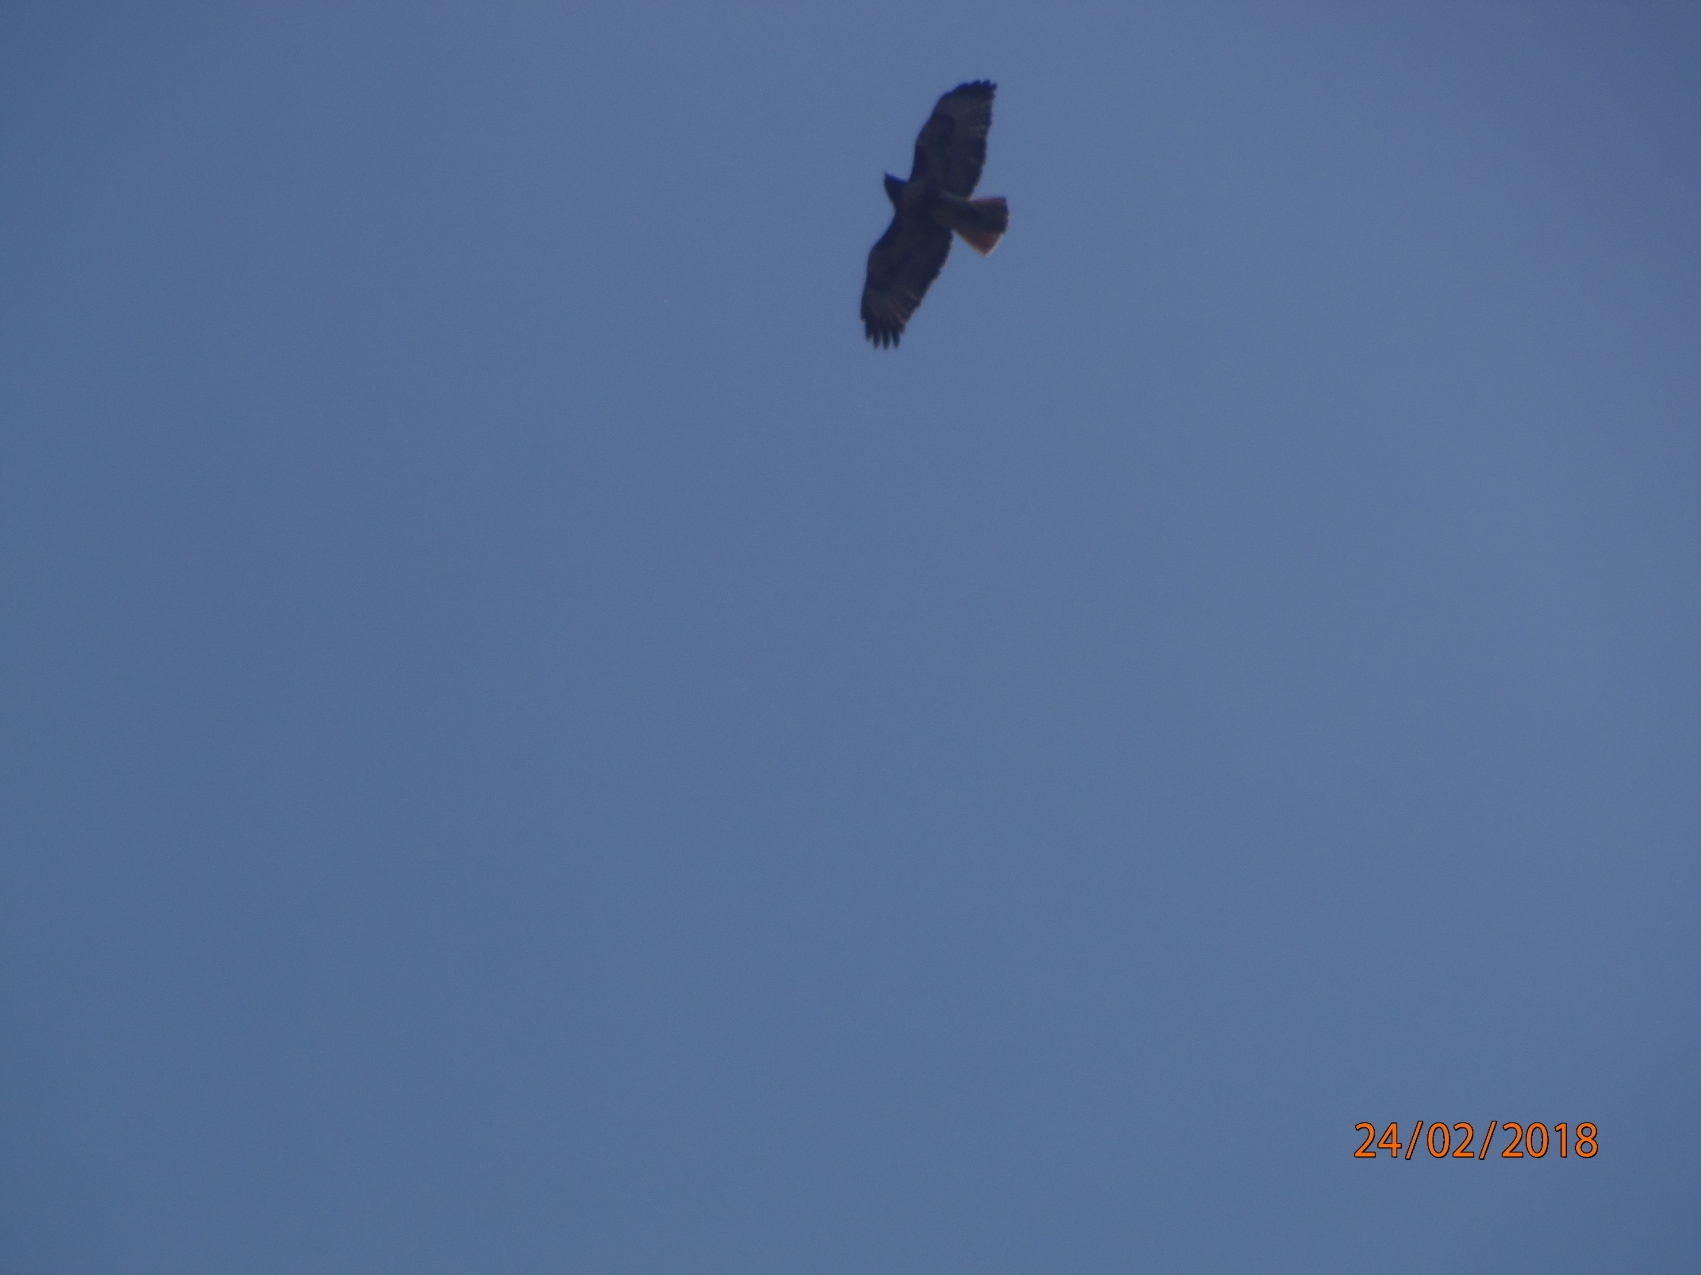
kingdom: Animalia
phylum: Chordata
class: Aves
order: Accipitriformes
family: Accipitridae
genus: Buteo
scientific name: Buteo jamaicensis
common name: Red-tailed hawk
